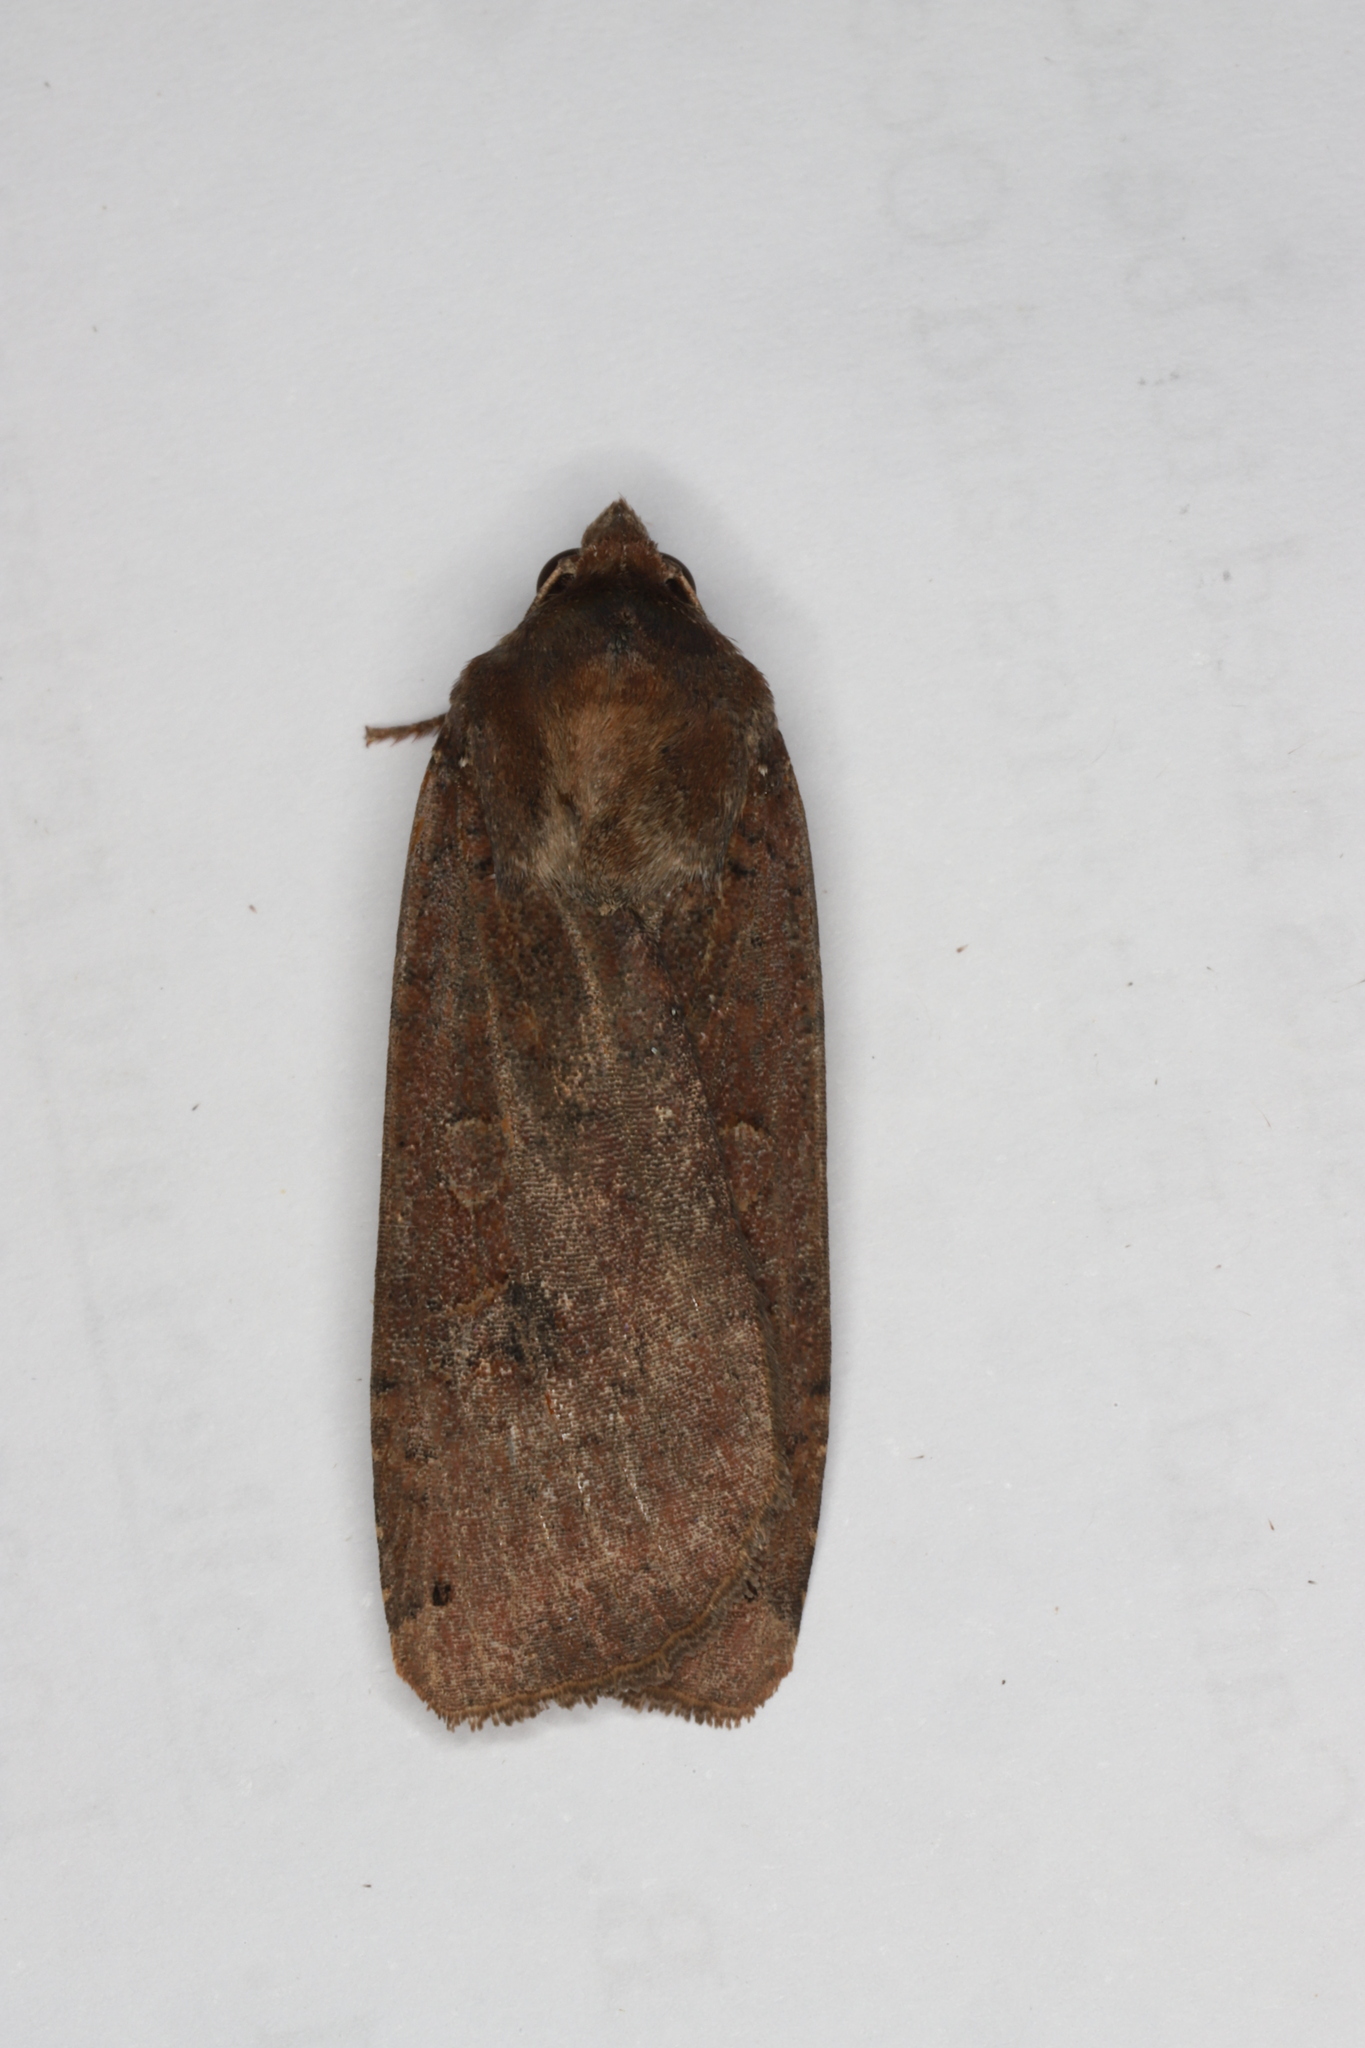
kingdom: Animalia
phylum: Arthropoda
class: Insecta
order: Lepidoptera
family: Noctuidae
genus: Noctua
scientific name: Noctua pronuba
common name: Large yellow underwing
